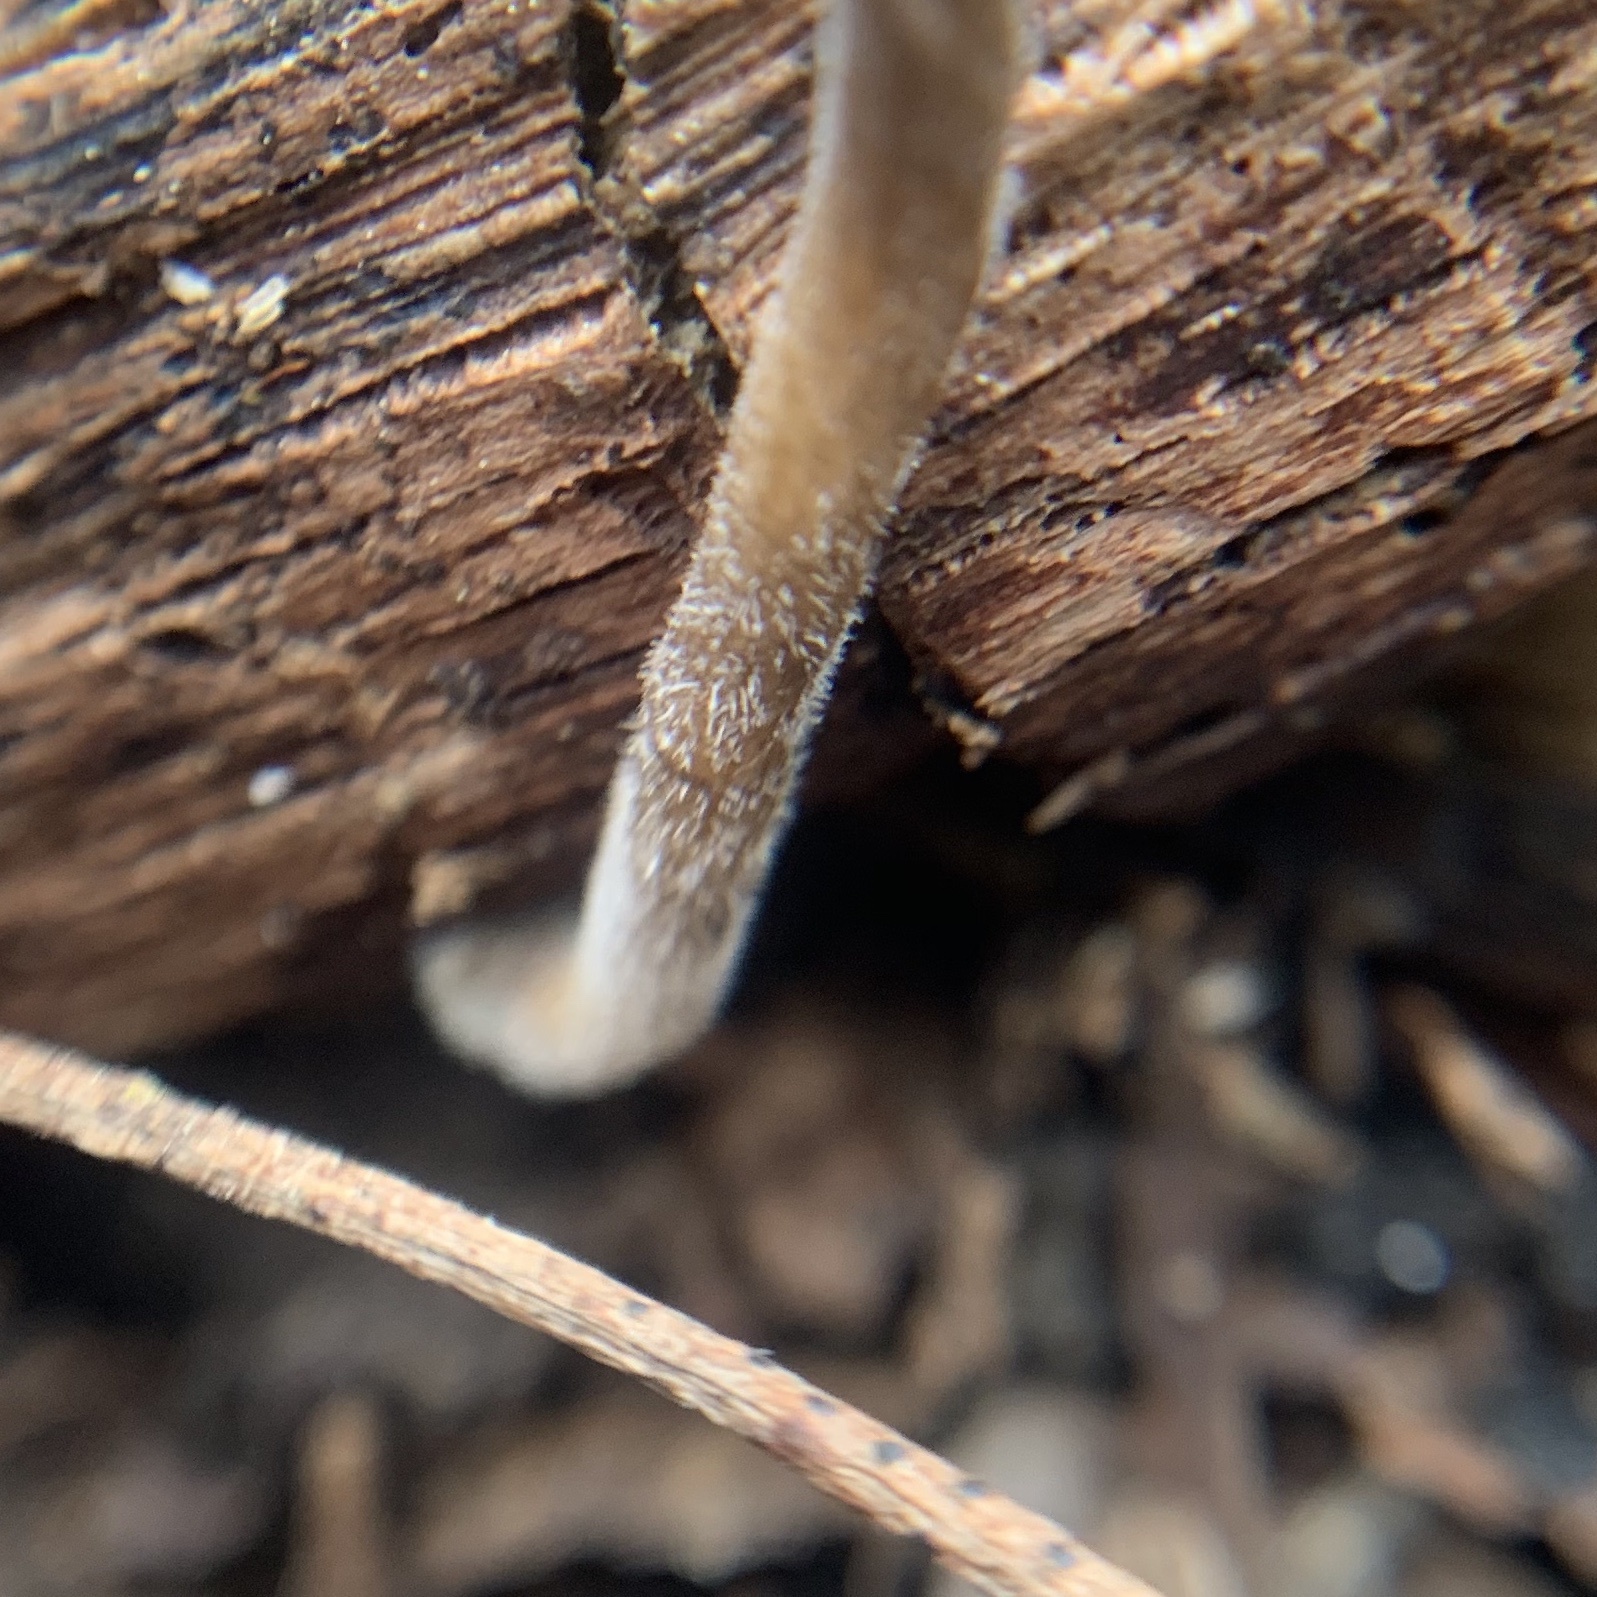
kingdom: Fungi
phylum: Basidiomycota
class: Agaricomycetes
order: Polyporales
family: Polyporaceae
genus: Lentinus
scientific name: Lentinus arcularius
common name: Spring polypore
